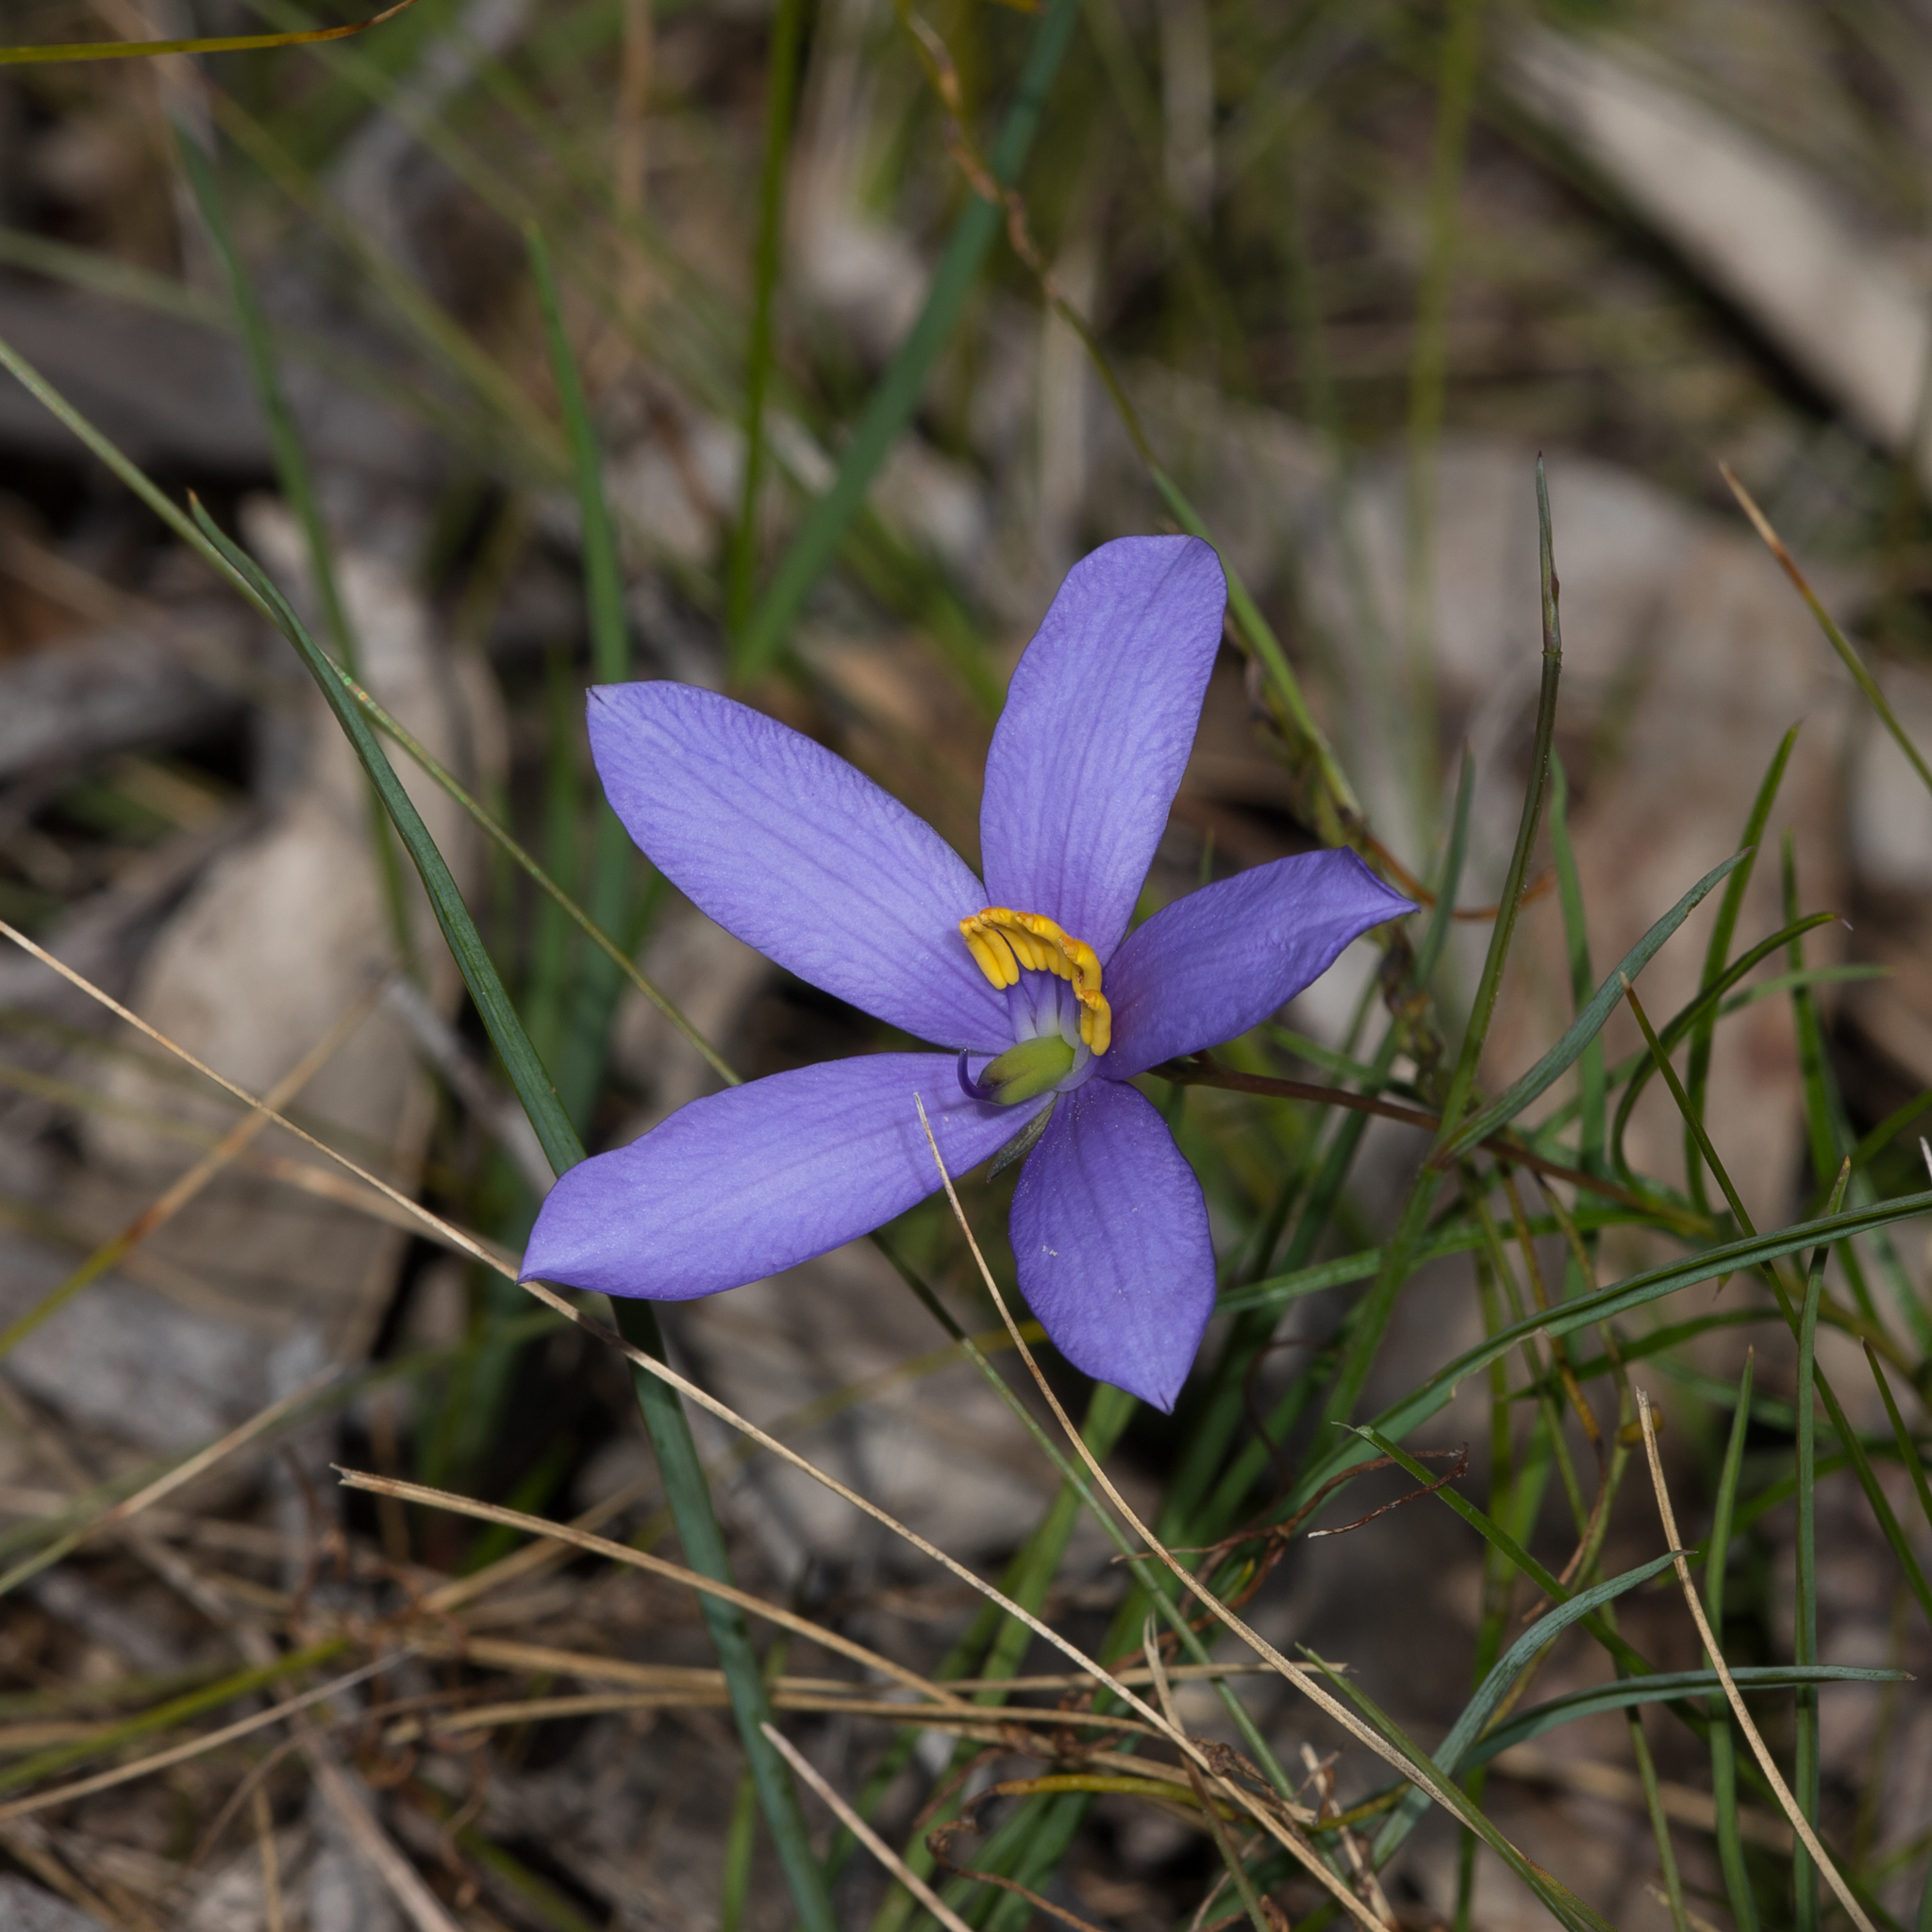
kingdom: Plantae
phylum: Tracheophyta
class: Magnoliopsida
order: Apiales
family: Pittosporaceae
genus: Cheiranthera
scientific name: Cheiranthera alternifolia
